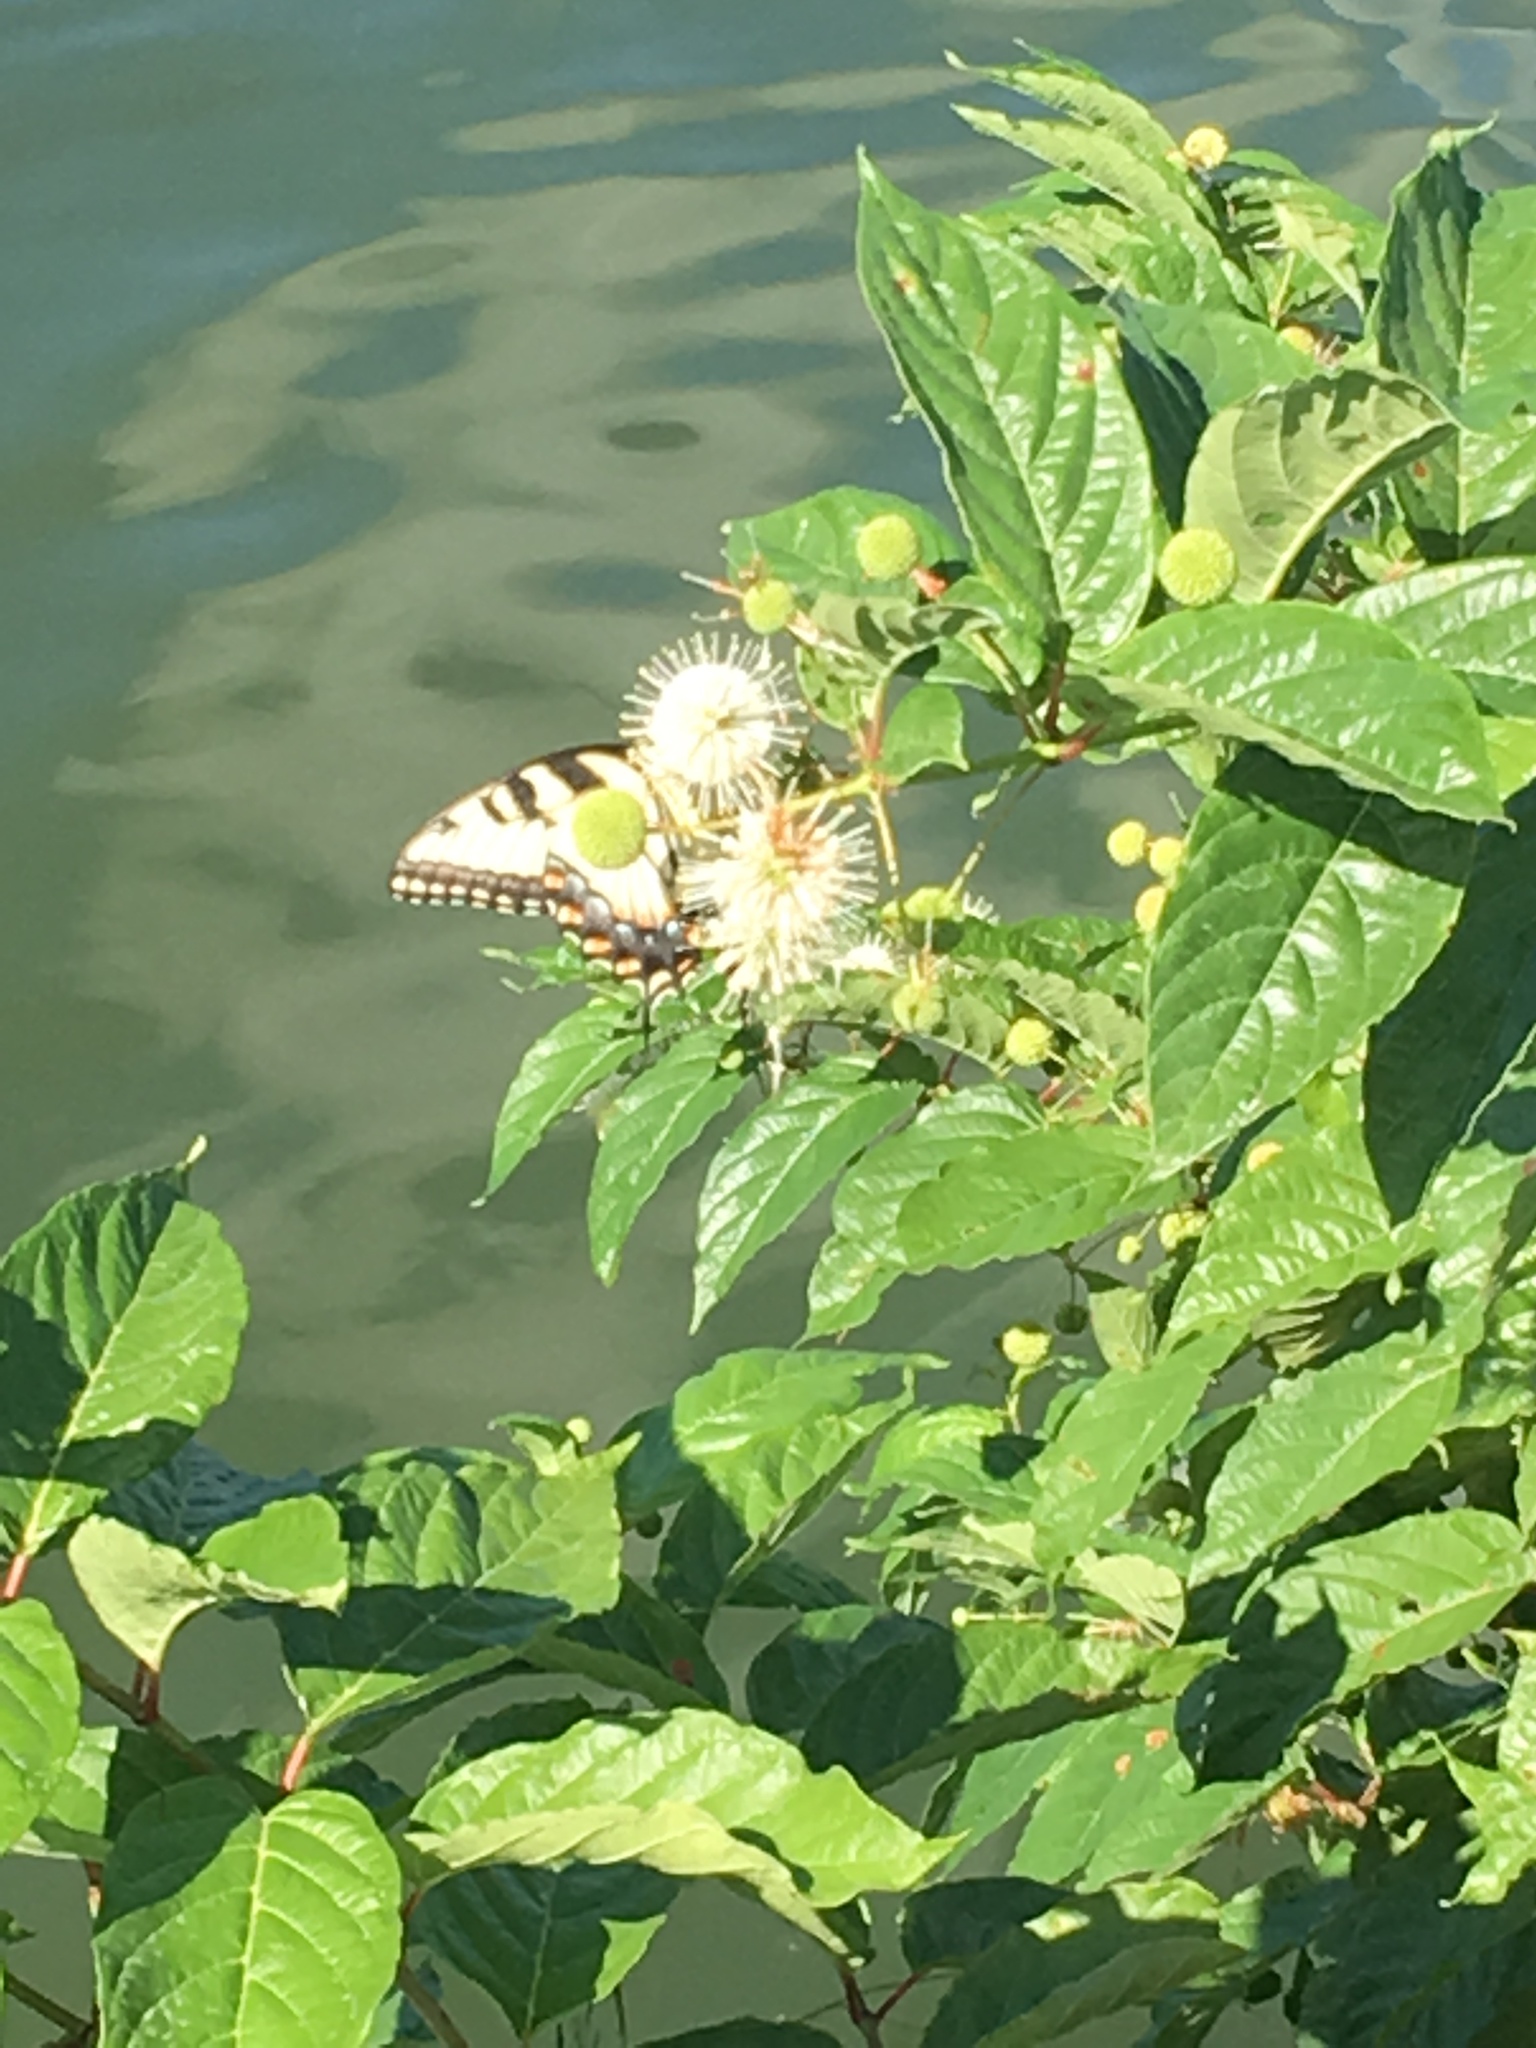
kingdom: Animalia
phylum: Arthropoda
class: Insecta
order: Lepidoptera
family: Papilionidae
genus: Papilio
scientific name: Papilio glaucus
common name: Tiger swallowtail
